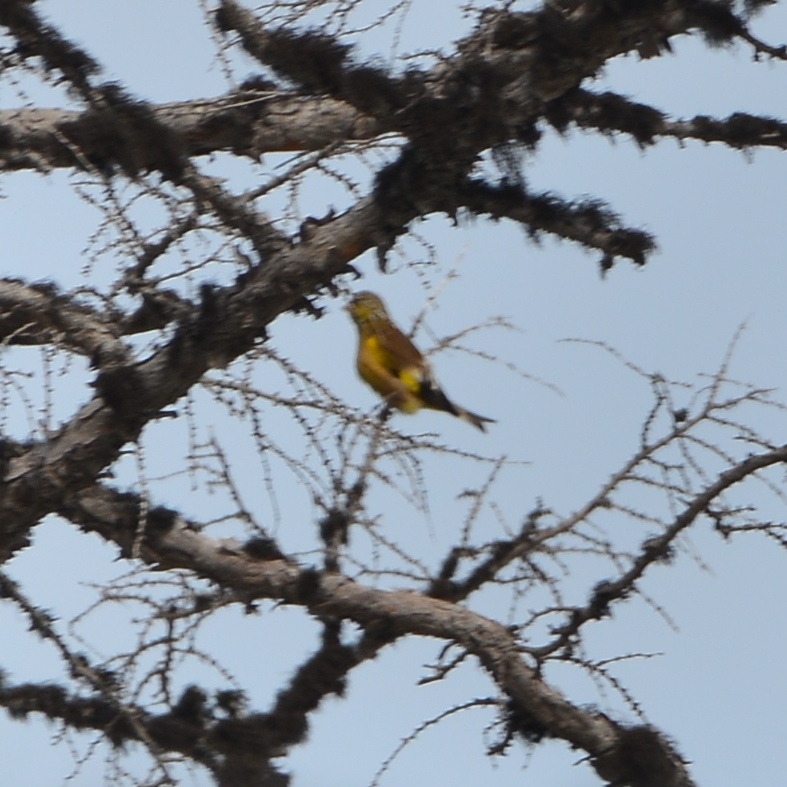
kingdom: Plantae
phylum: Tracheophyta
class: Liliopsida
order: Poales
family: Poaceae
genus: Chloris
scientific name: Chloris sinica
